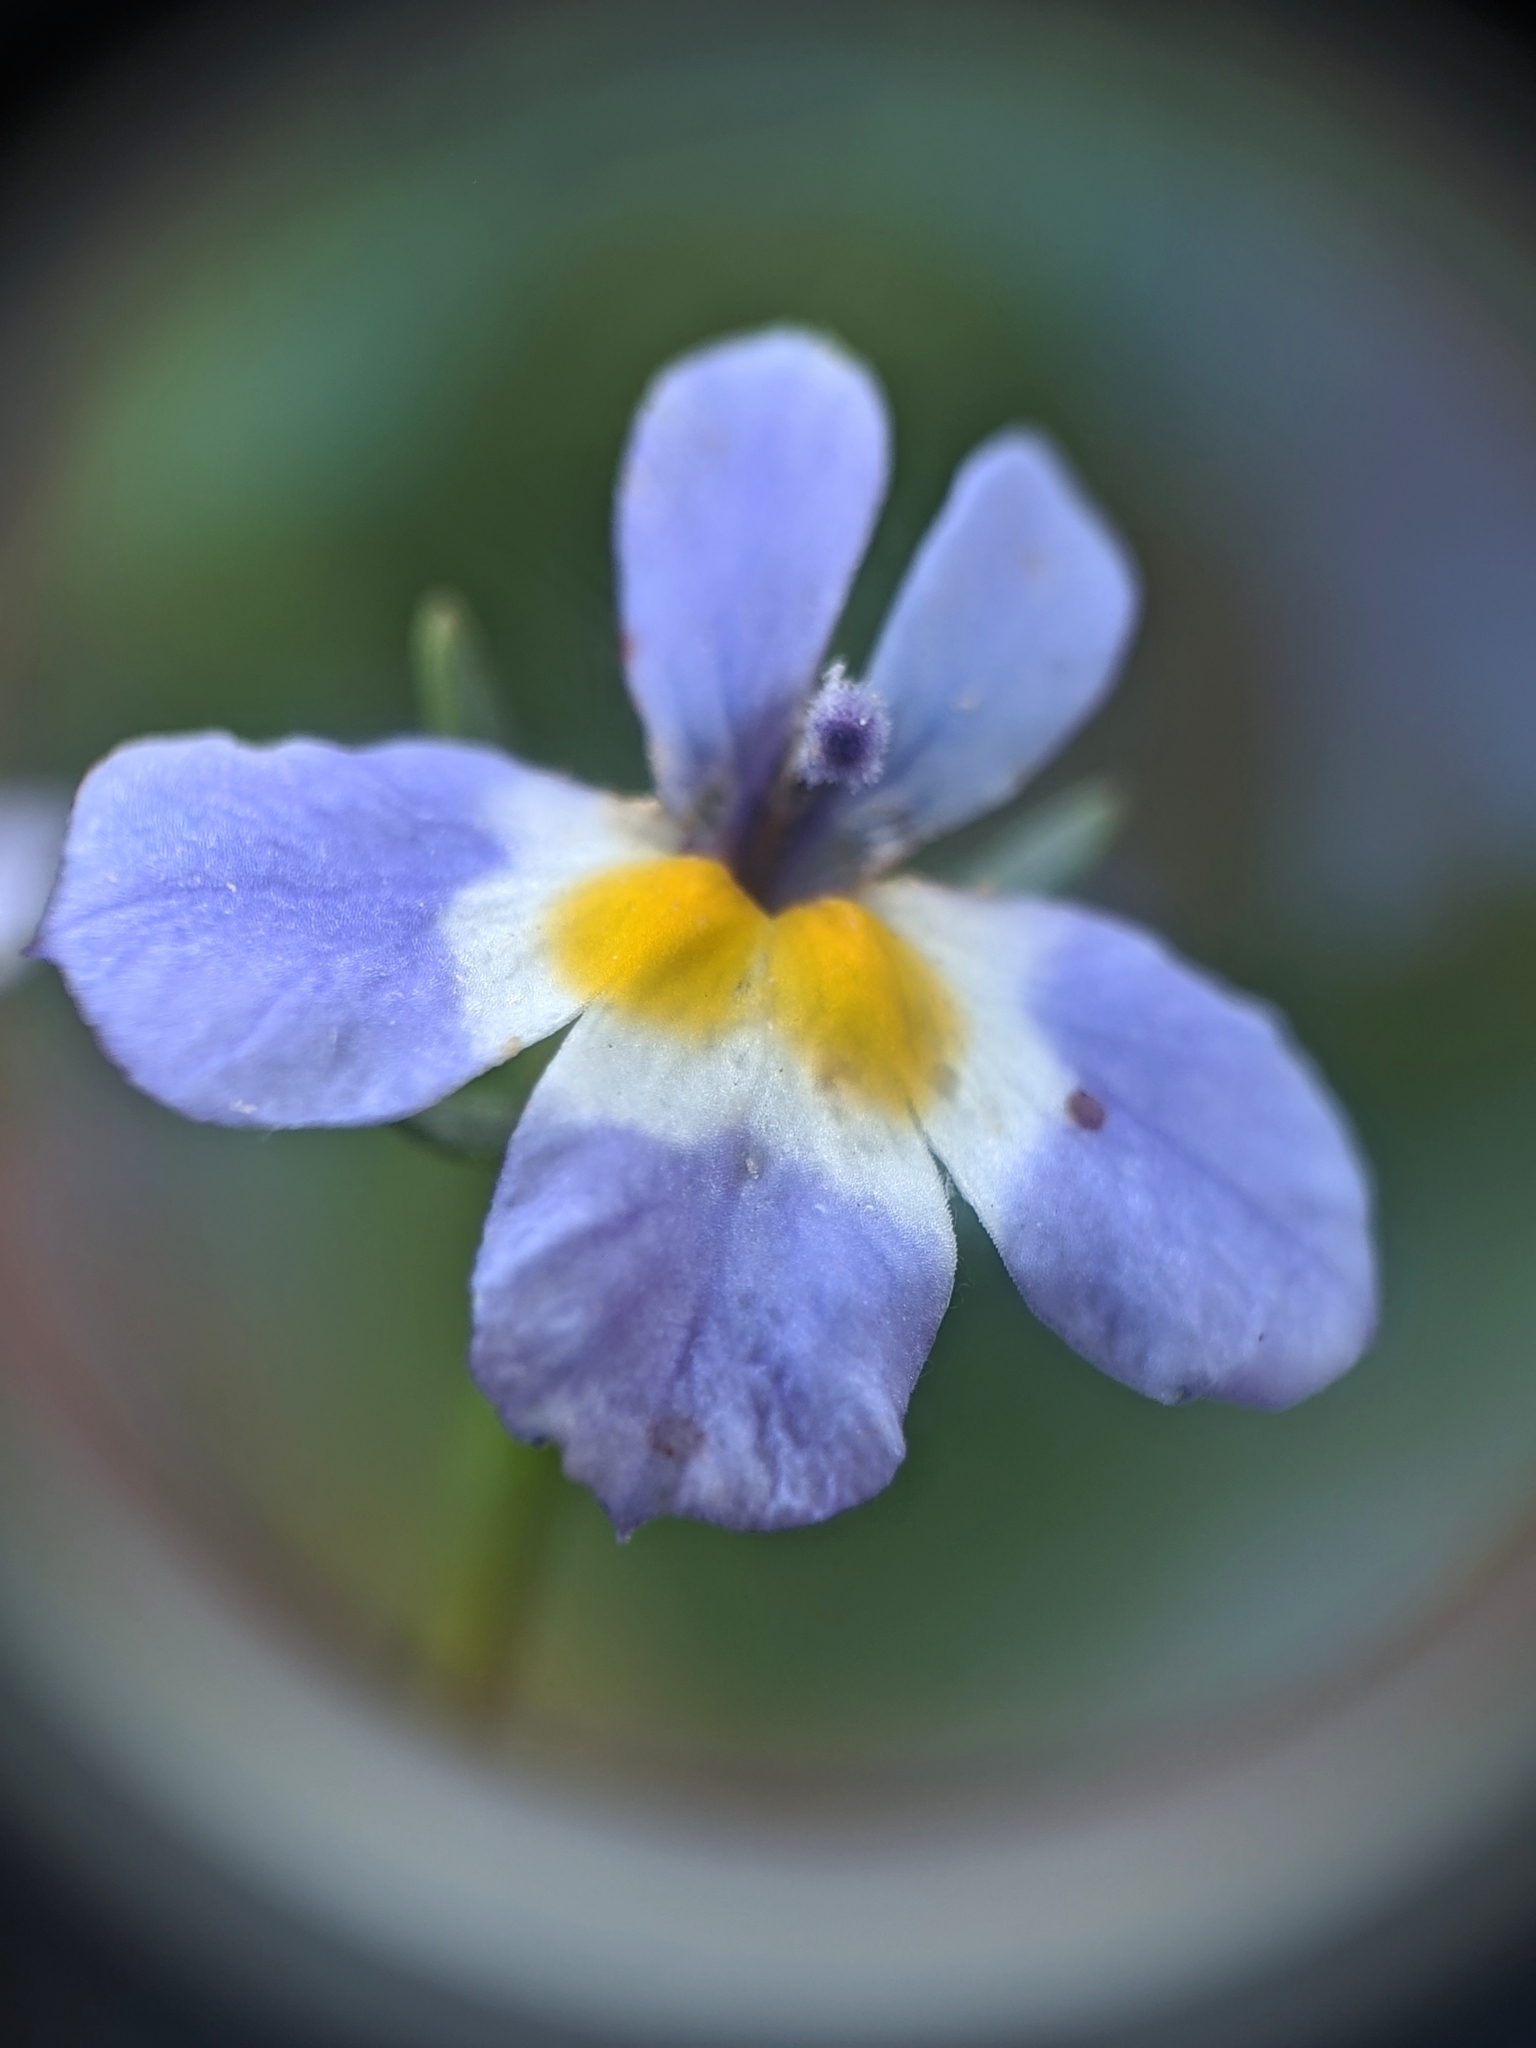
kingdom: Plantae
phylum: Tracheophyta
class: Magnoliopsida
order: Asterales
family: Campanulaceae
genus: Downingia
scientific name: Downingia cuspidata
